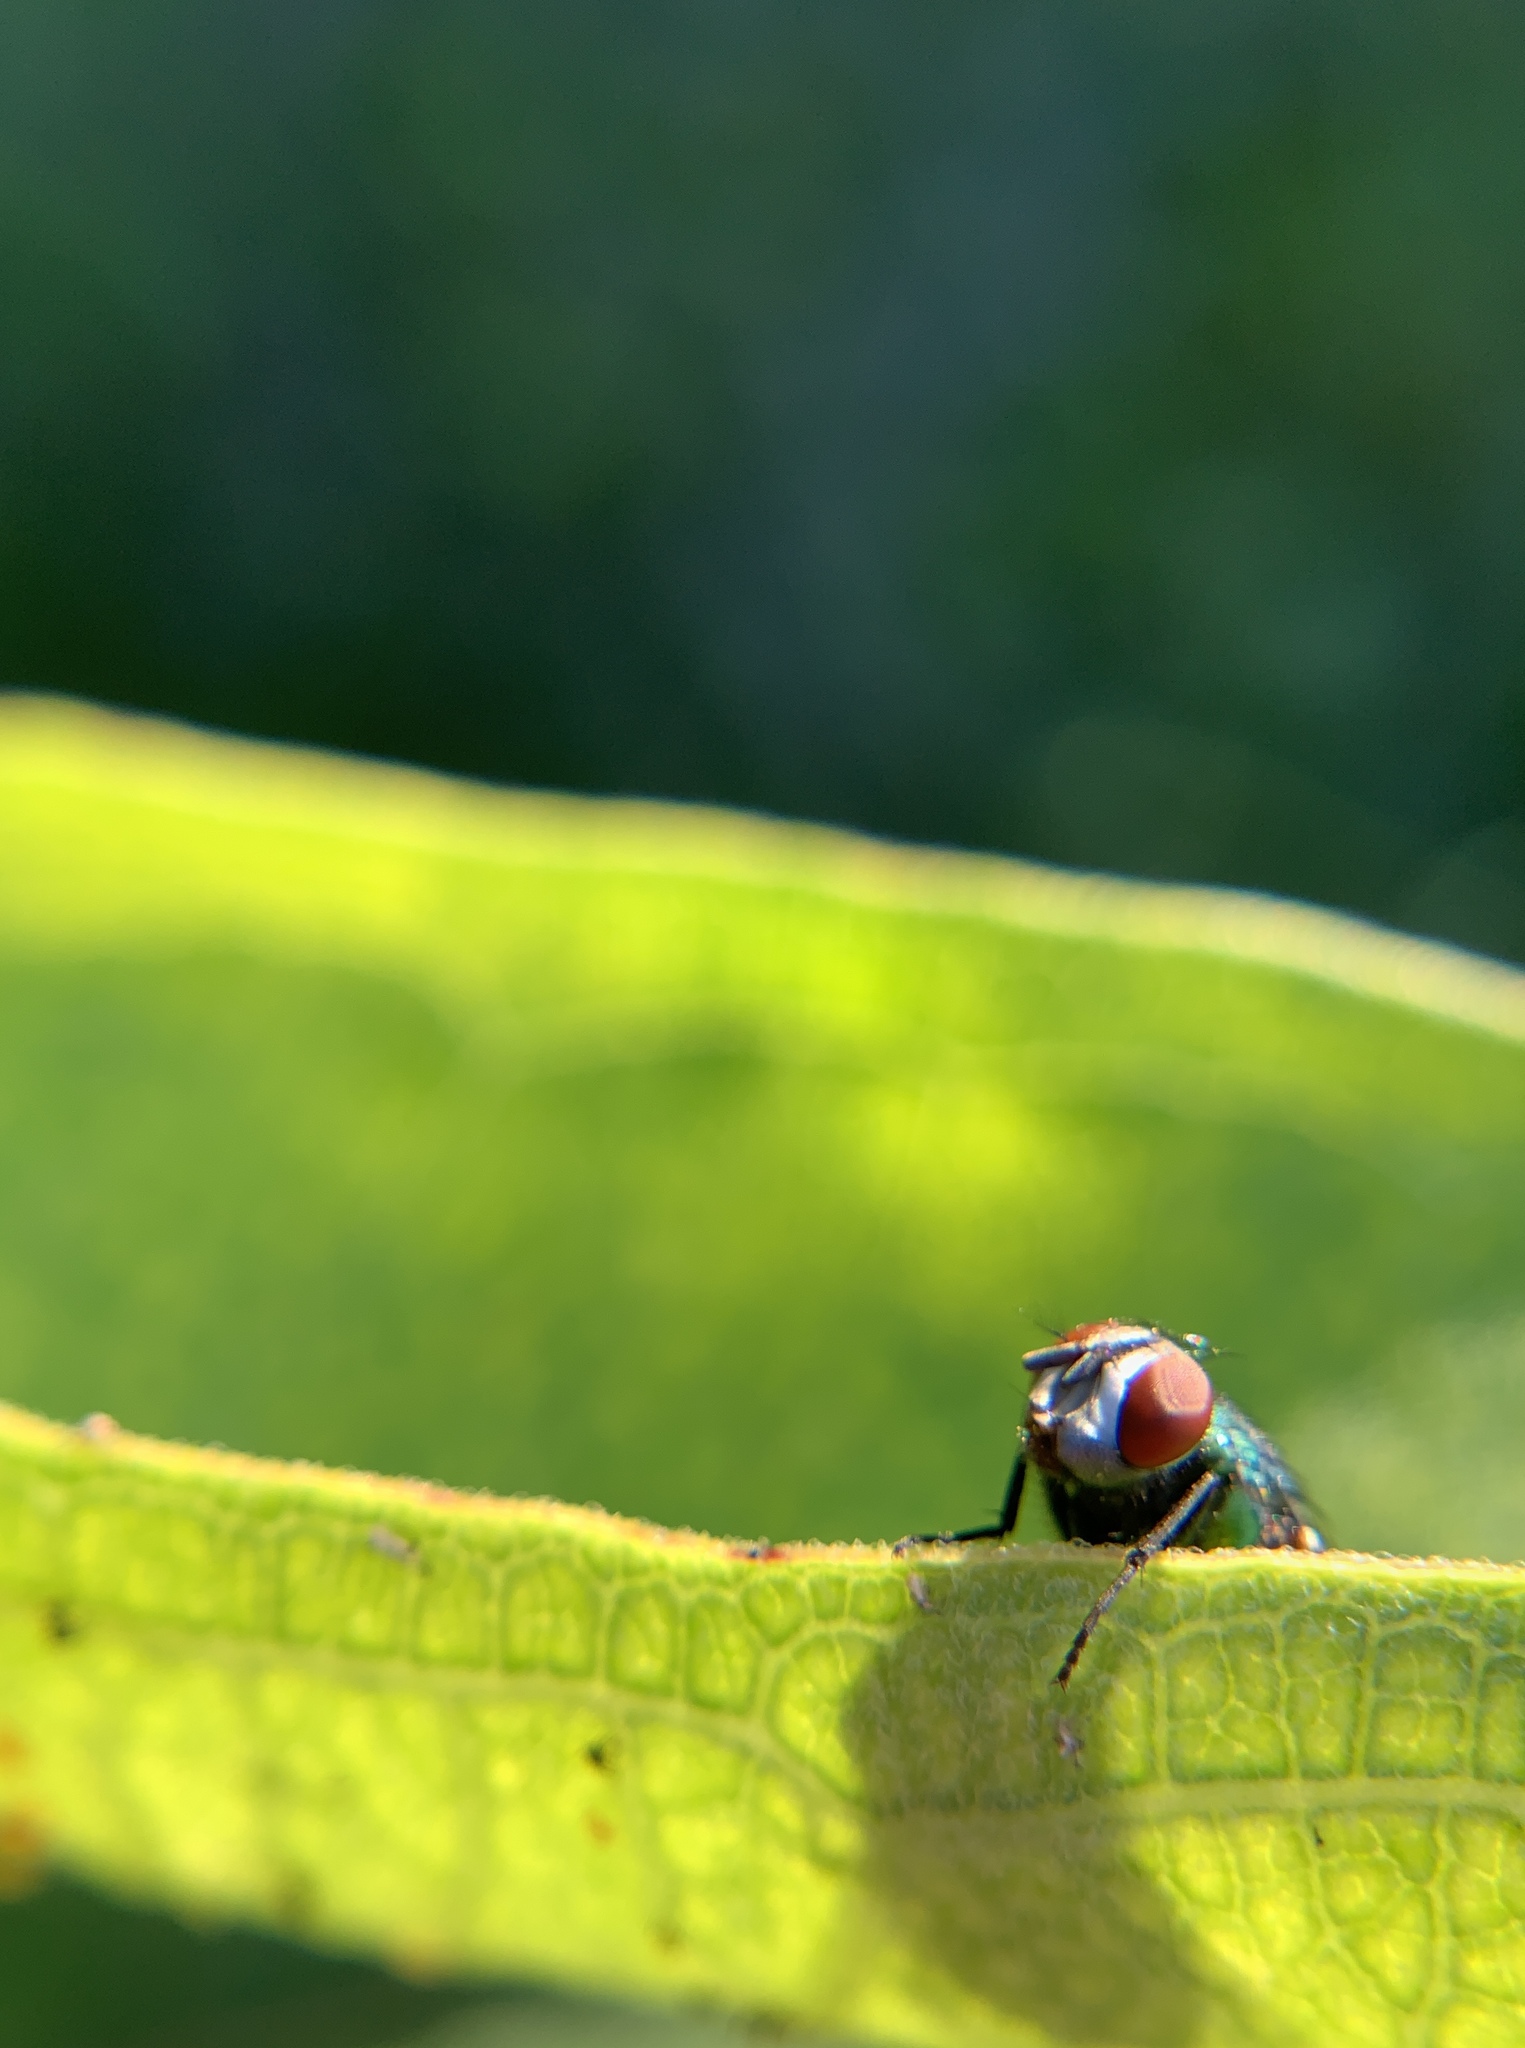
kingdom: Animalia
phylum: Arthropoda
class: Insecta
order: Diptera
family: Calliphoridae
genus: Lucilia
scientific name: Lucilia
